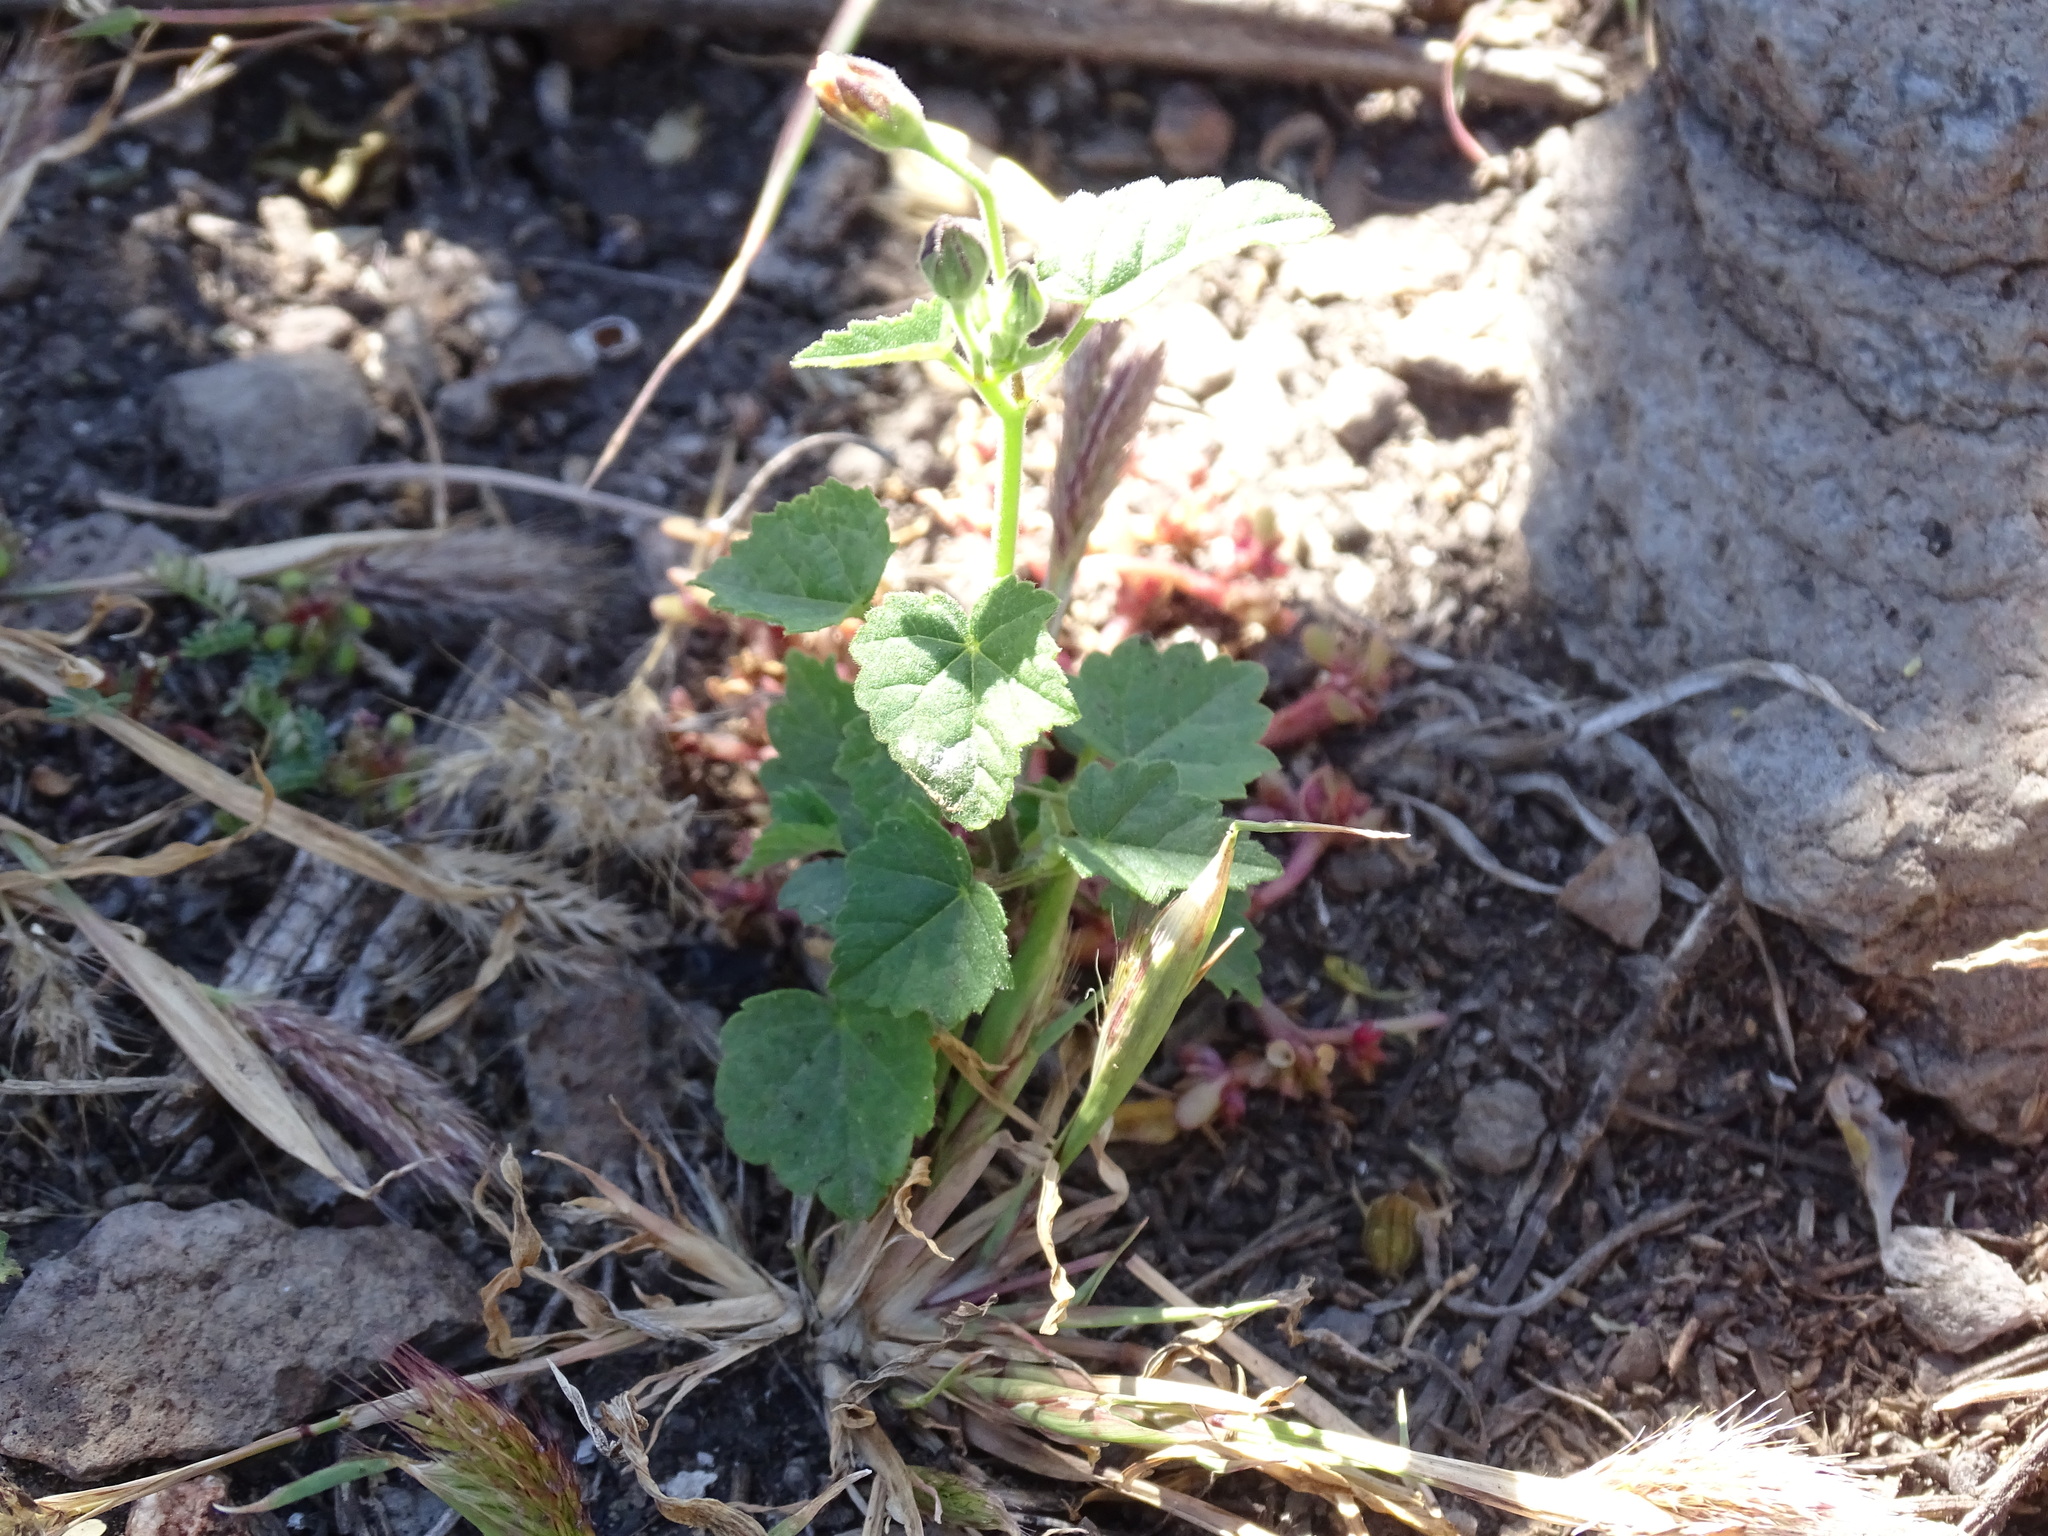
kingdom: Plantae
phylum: Tracheophyta
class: Magnoliopsida
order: Malvales
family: Malvaceae
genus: Anoda
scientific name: Anoda crenatiflora
